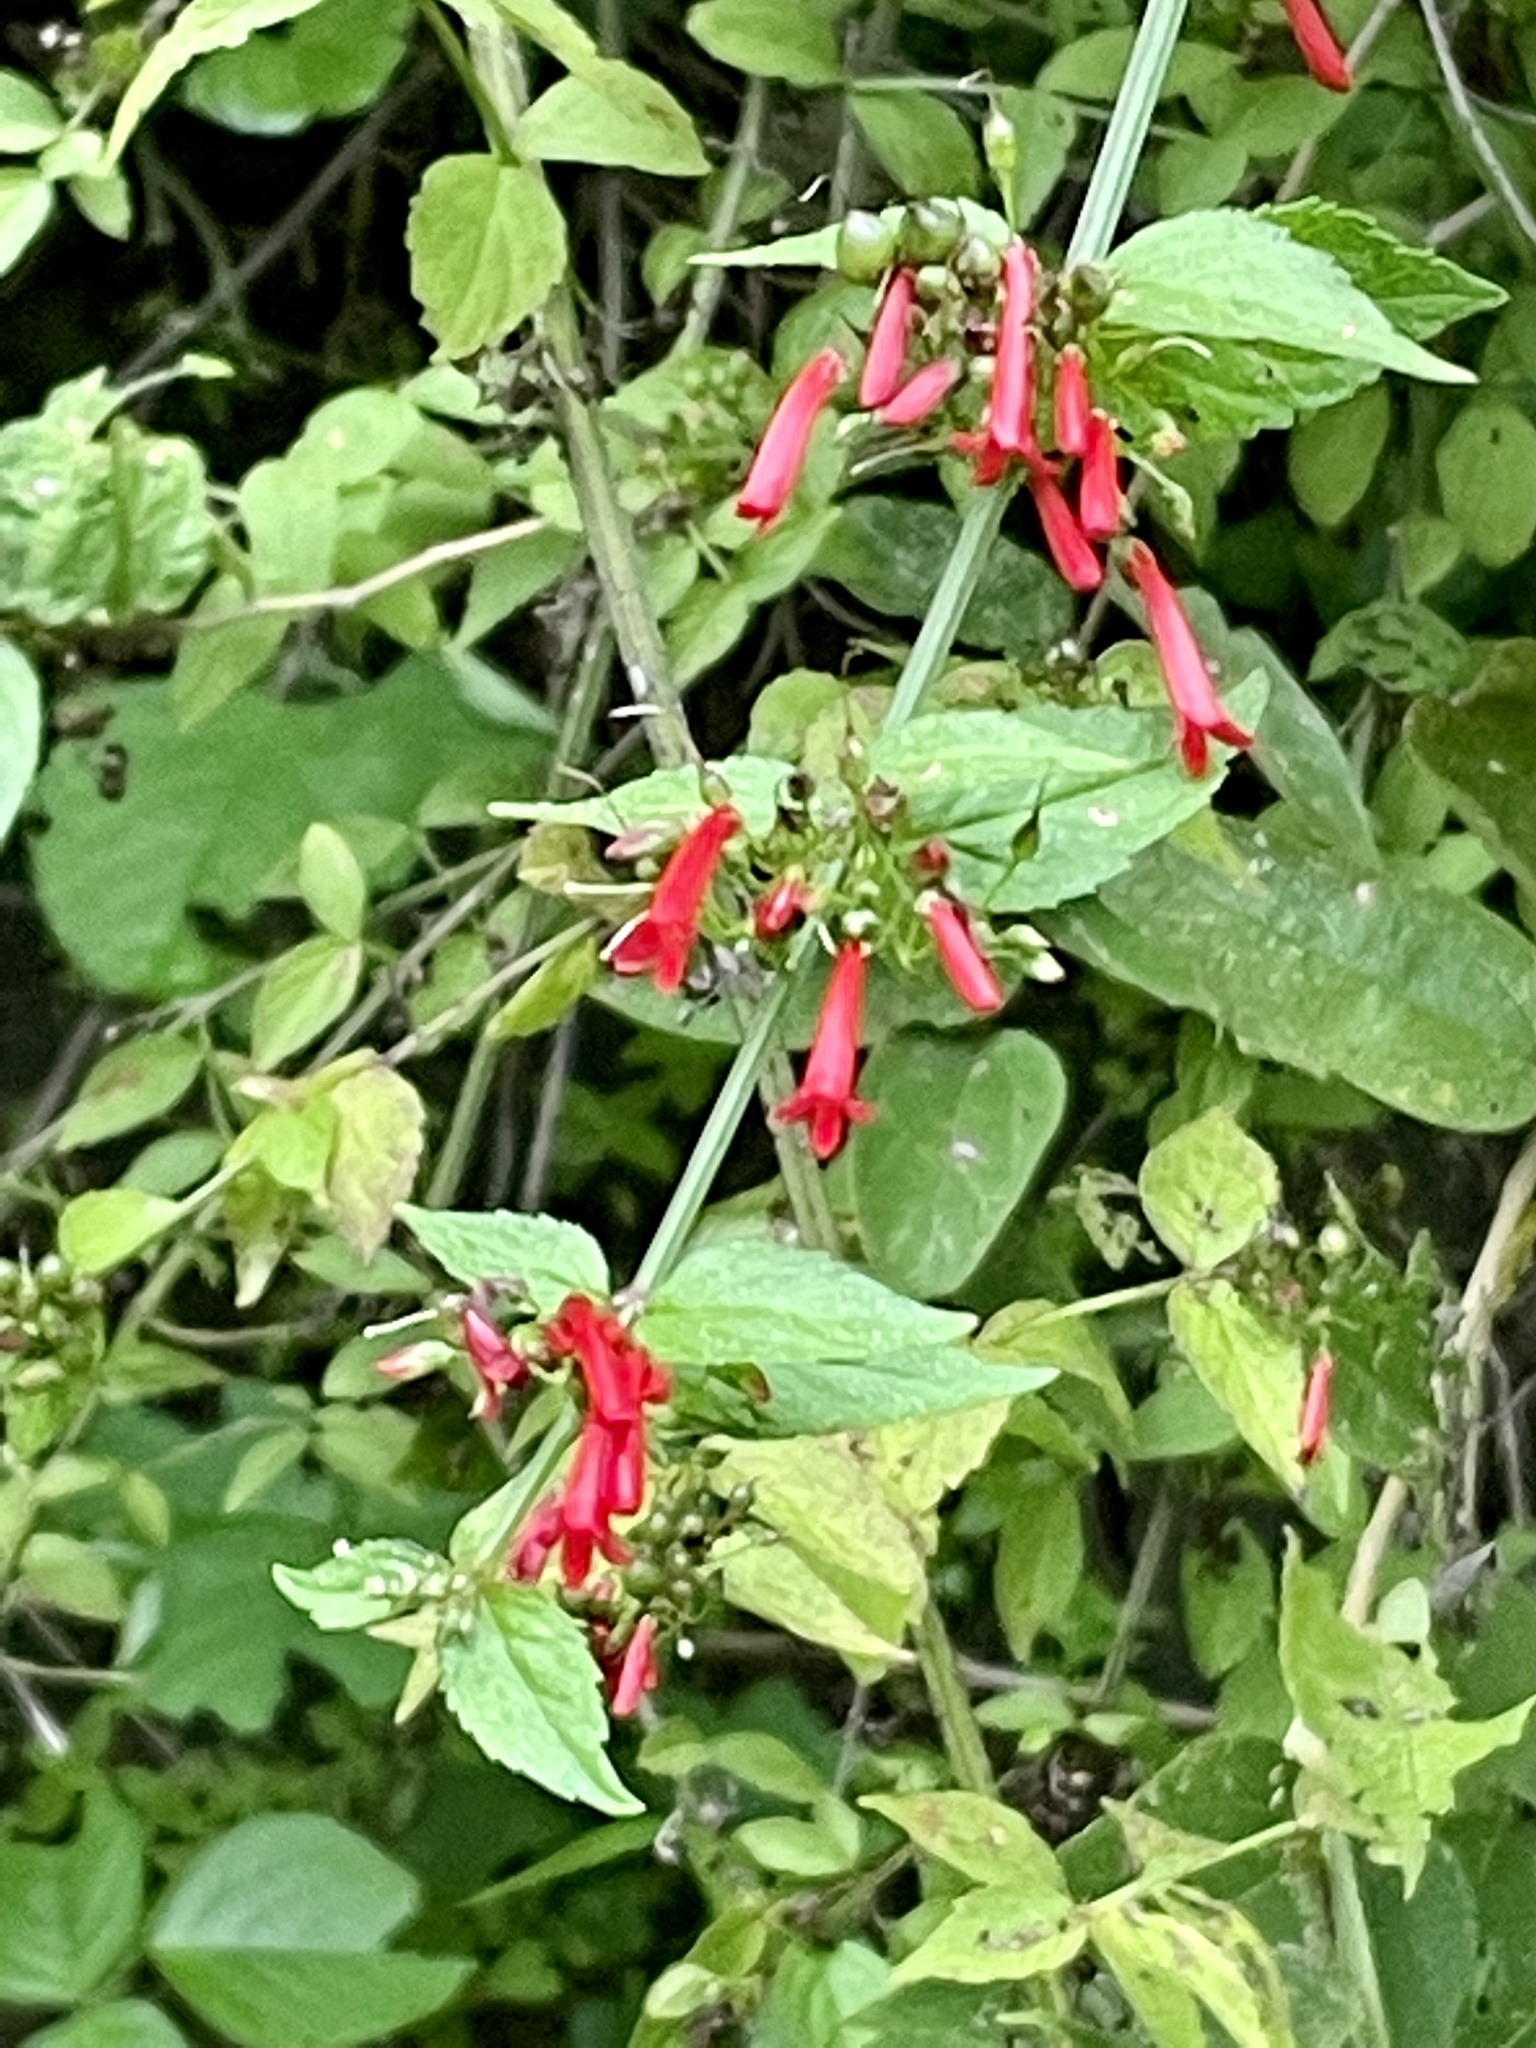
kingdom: Plantae
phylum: Tracheophyta
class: Magnoliopsida
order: Lamiales
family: Plantaginaceae
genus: Russelia
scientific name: Russelia sarmentosa
